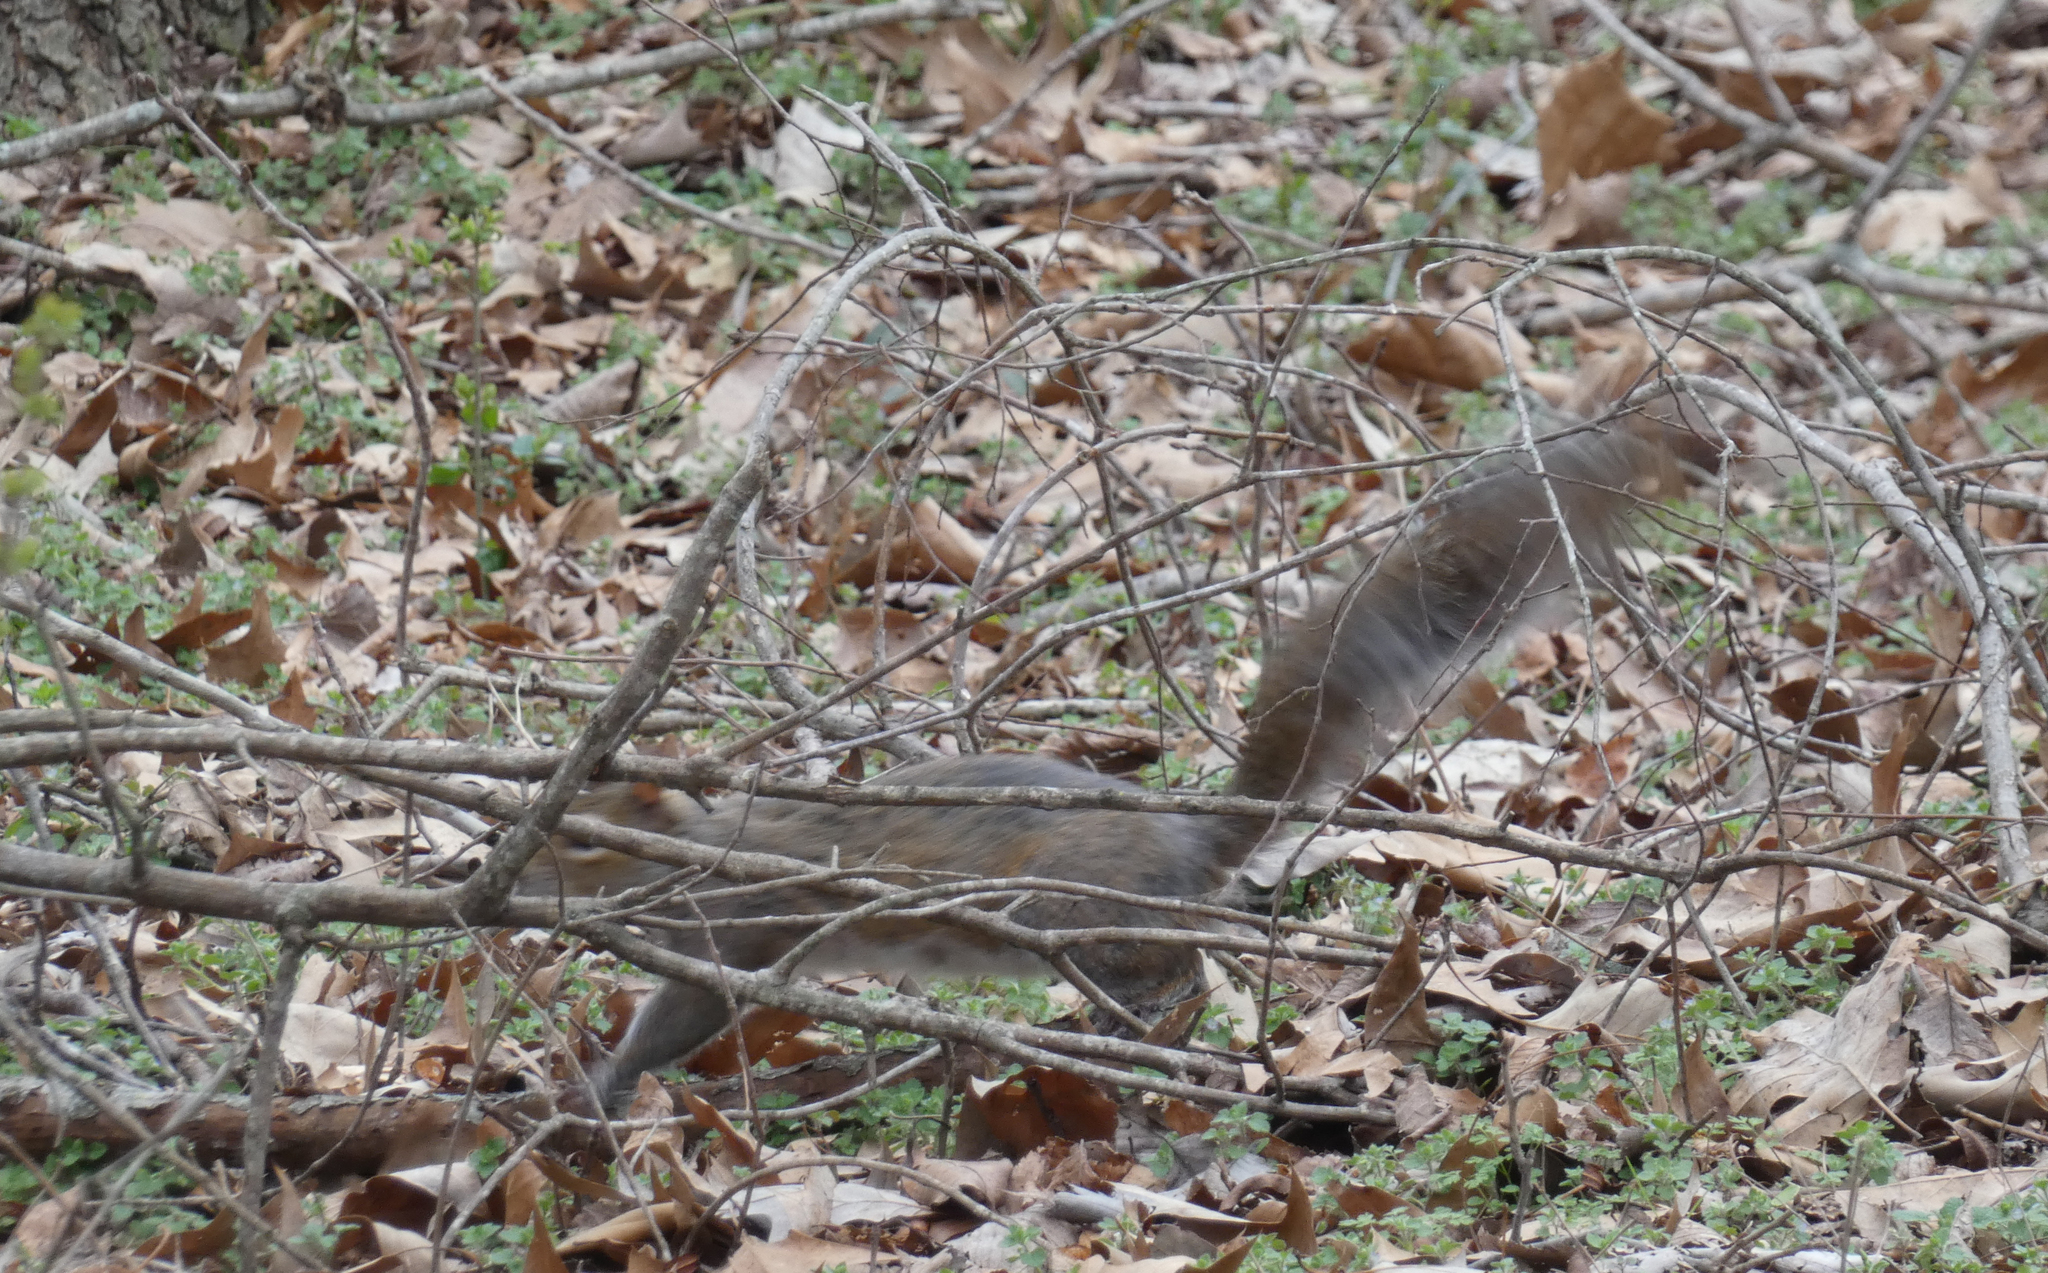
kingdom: Animalia
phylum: Chordata
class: Mammalia
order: Rodentia
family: Sciuridae
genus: Sciurus
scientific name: Sciurus carolinensis
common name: Eastern gray squirrel
